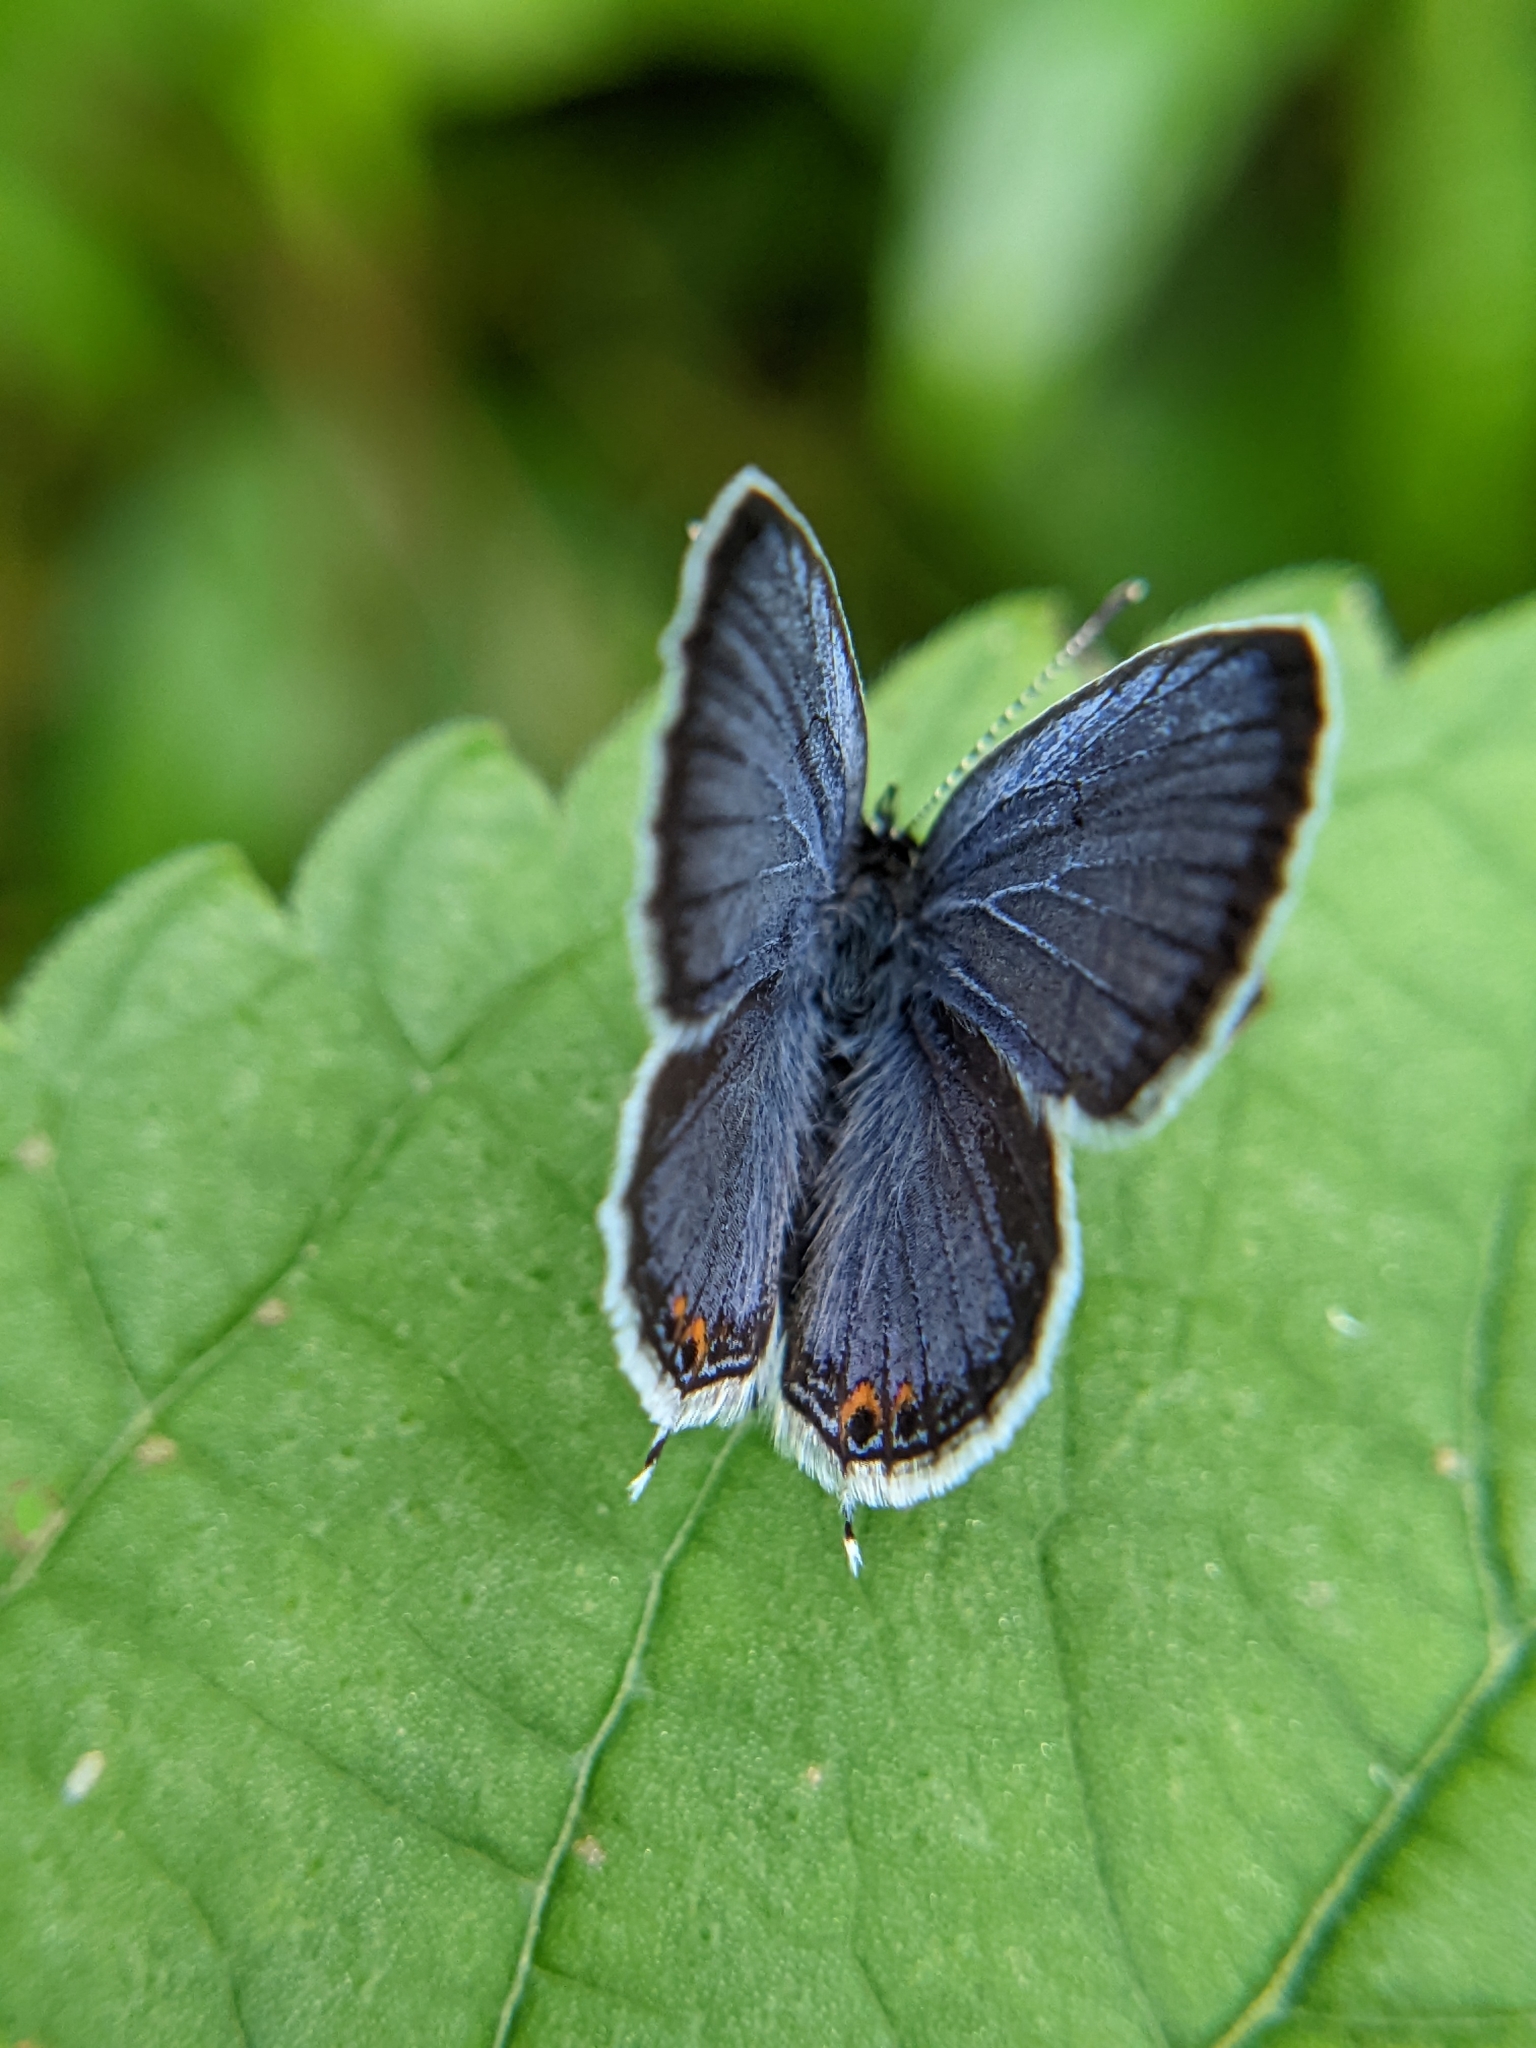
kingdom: Animalia
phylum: Arthropoda
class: Insecta
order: Lepidoptera
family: Lycaenidae
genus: Elkalyce
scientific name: Elkalyce comyntas
